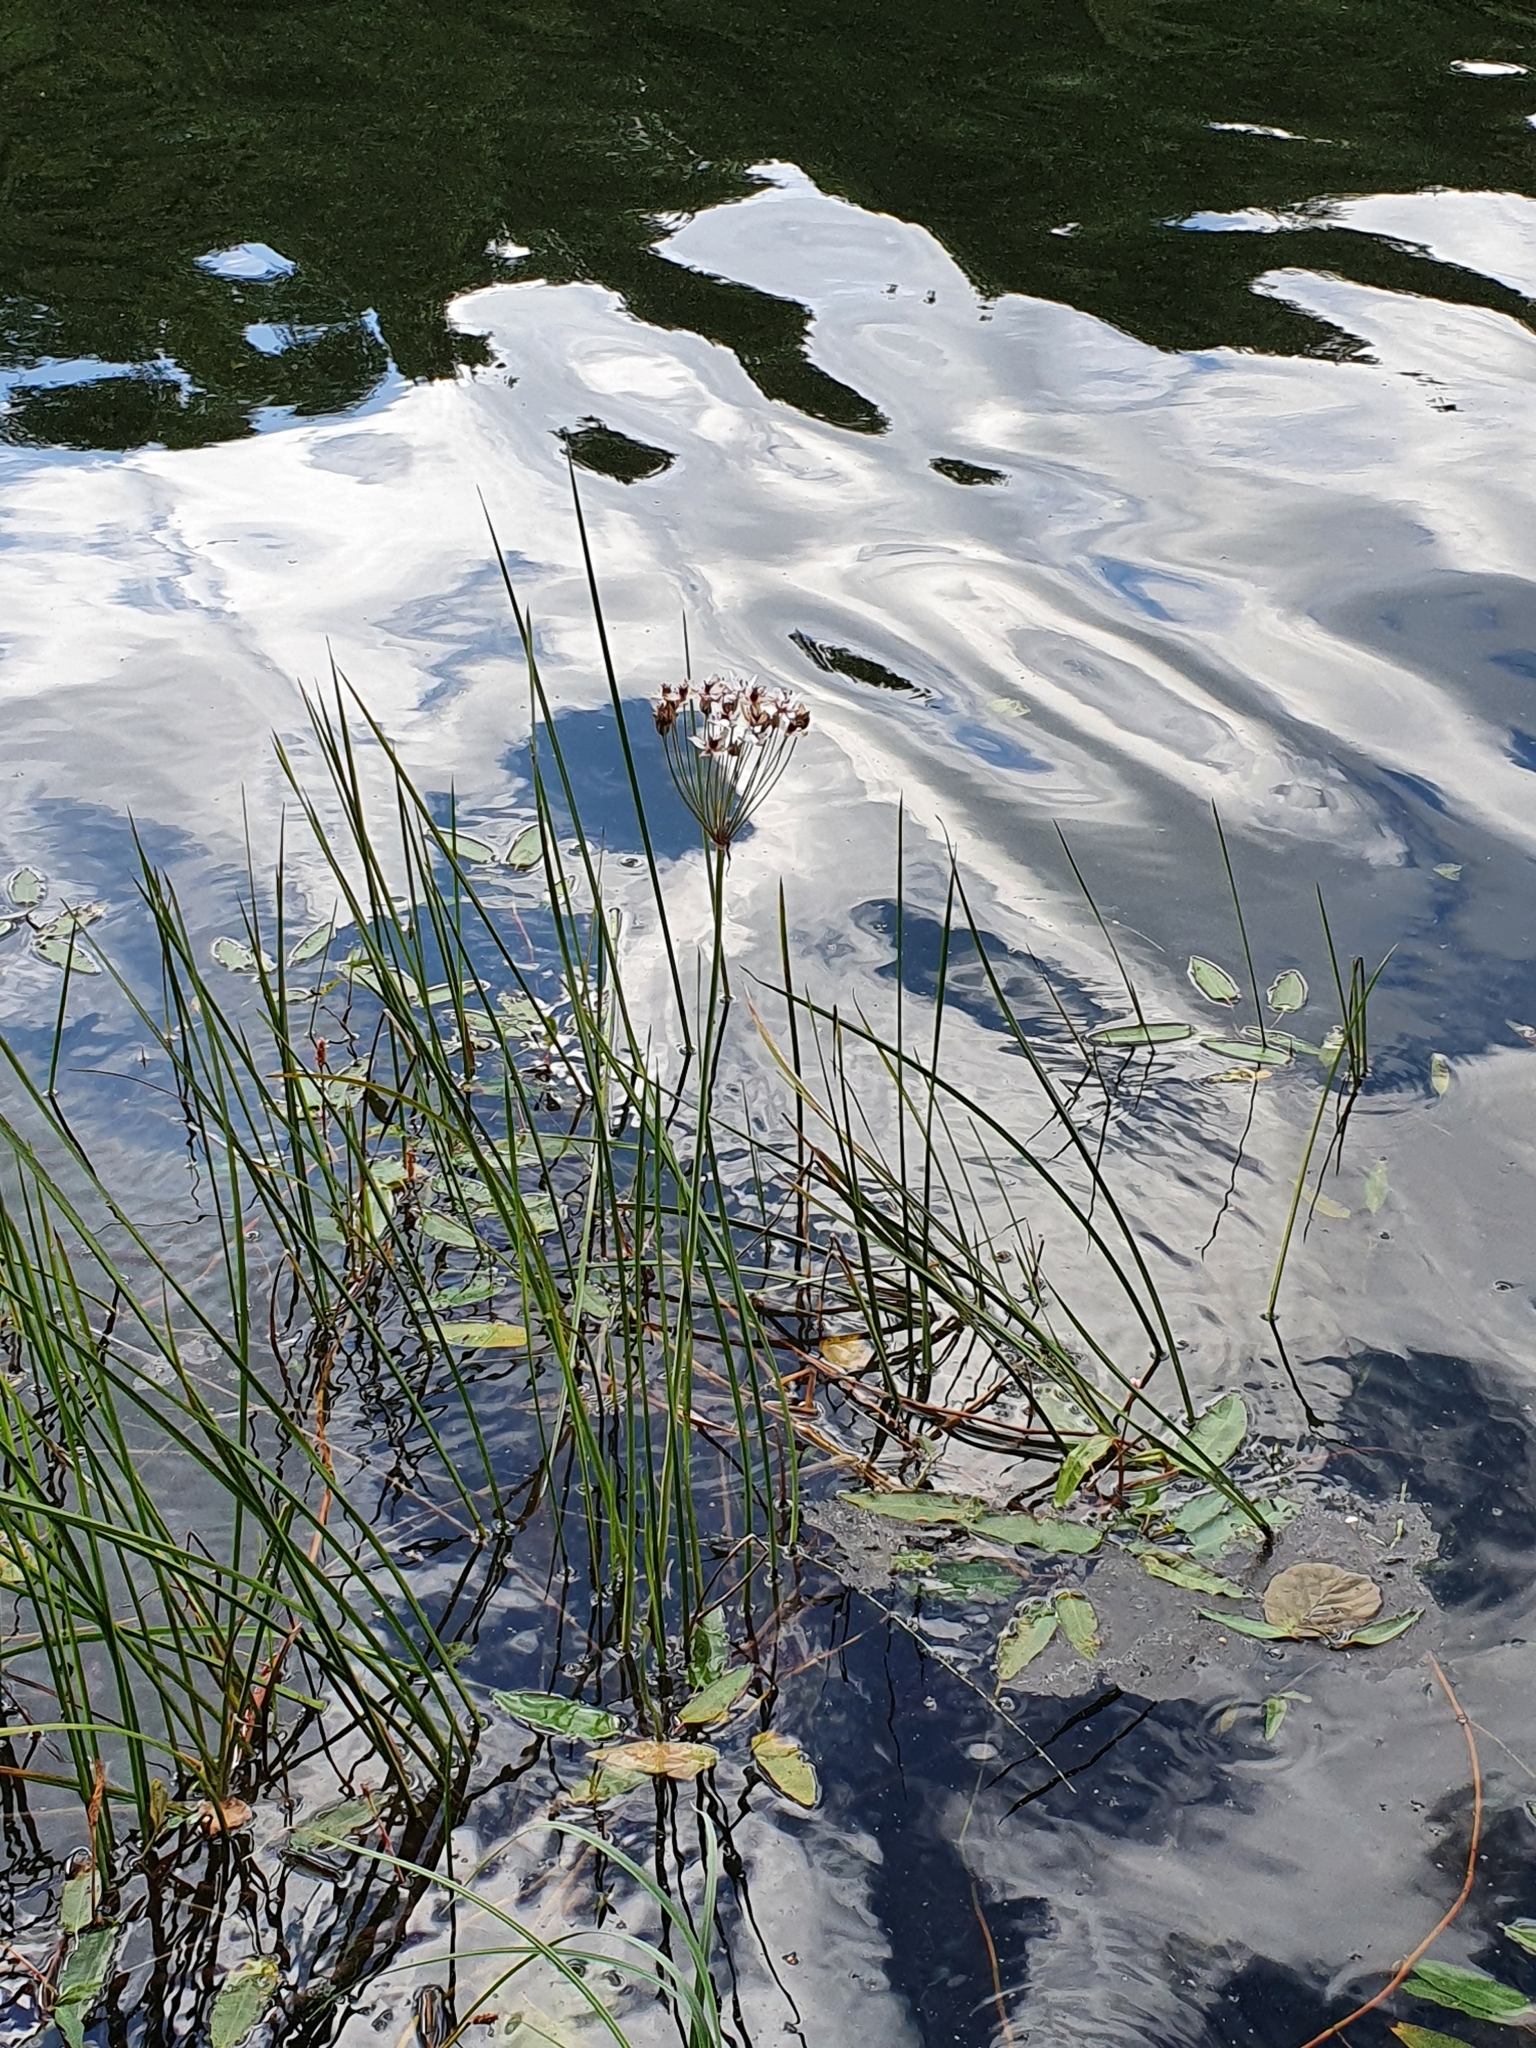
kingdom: Plantae
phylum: Tracheophyta
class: Liliopsida
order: Alismatales
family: Butomaceae
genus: Butomus
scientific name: Butomus umbellatus
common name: Flowering-rush
